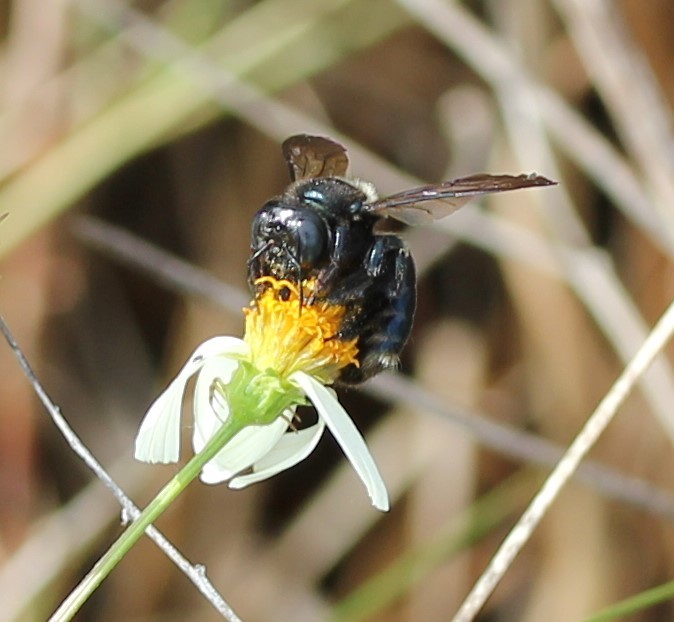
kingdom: Animalia
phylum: Arthropoda
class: Insecta
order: Hymenoptera
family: Apidae
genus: Xylocopa
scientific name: Xylocopa micans
